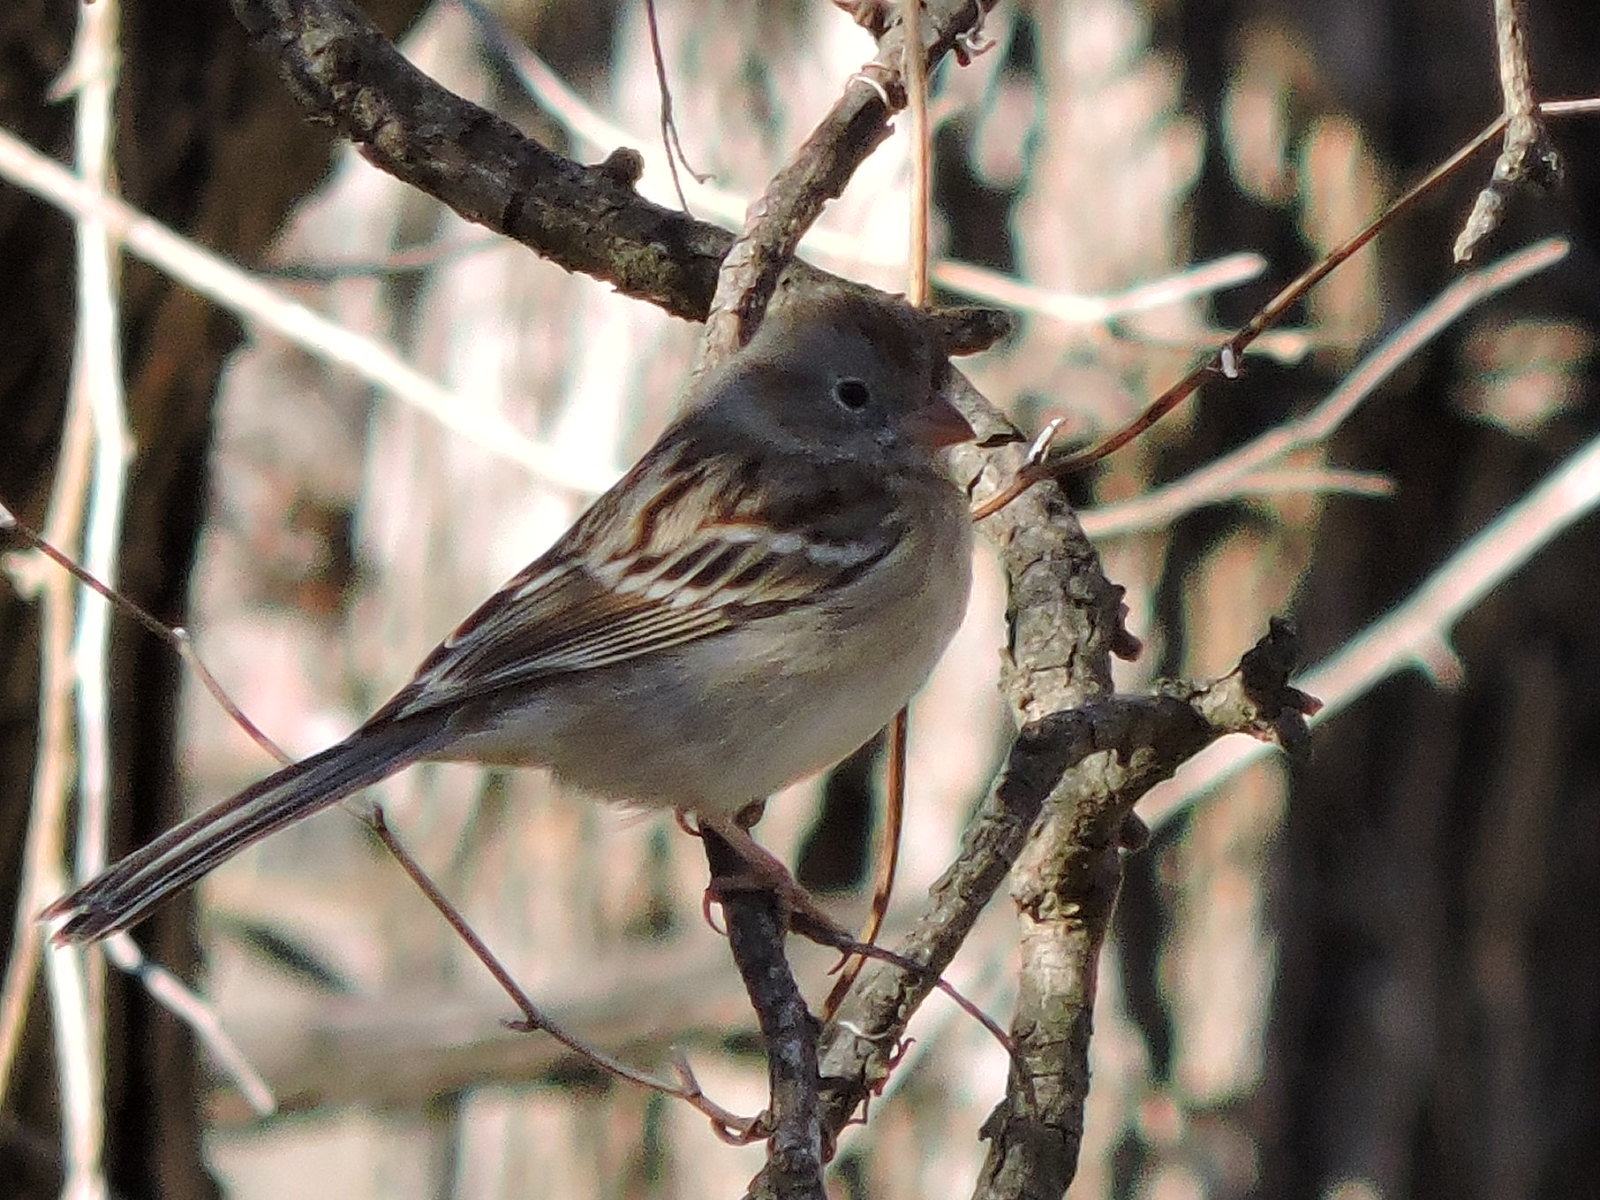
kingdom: Animalia
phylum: Chordata
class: Aves
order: Passeriformes
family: Passerellidae
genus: Spizella
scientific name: Spizella pusilla
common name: Field sparrow
